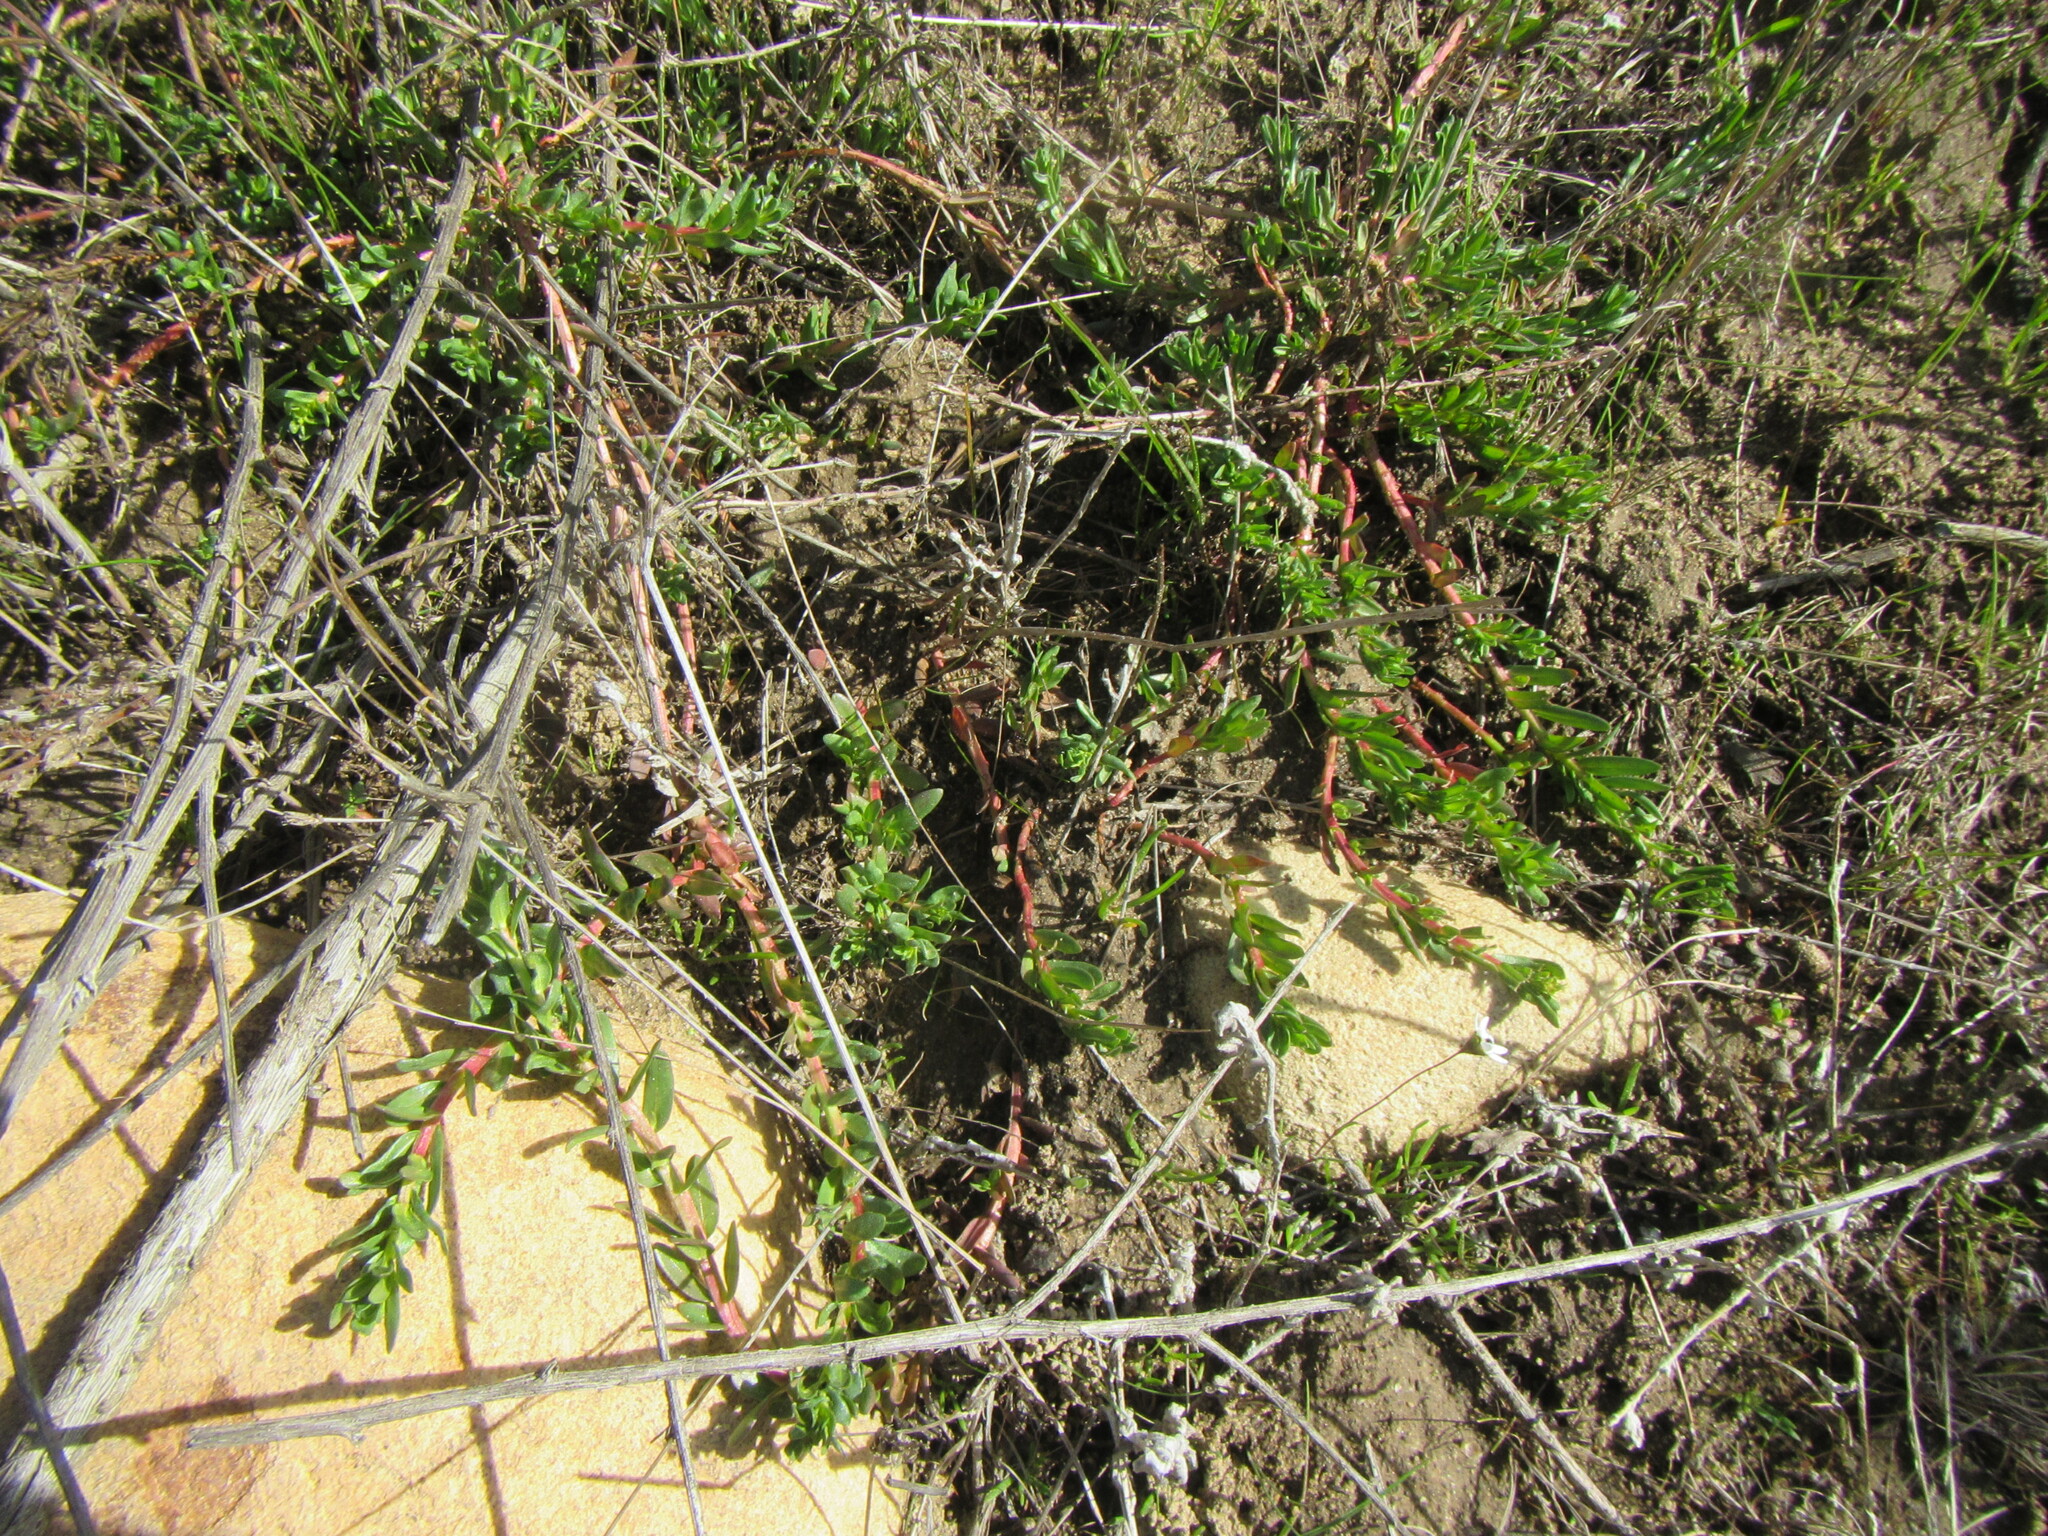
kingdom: Plantae
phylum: Tracheophyta
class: Magnoliopsida
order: Myrtales
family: Lythraceae
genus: Lythrum
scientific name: Lythrum hyssopifolia
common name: Grass-poly
